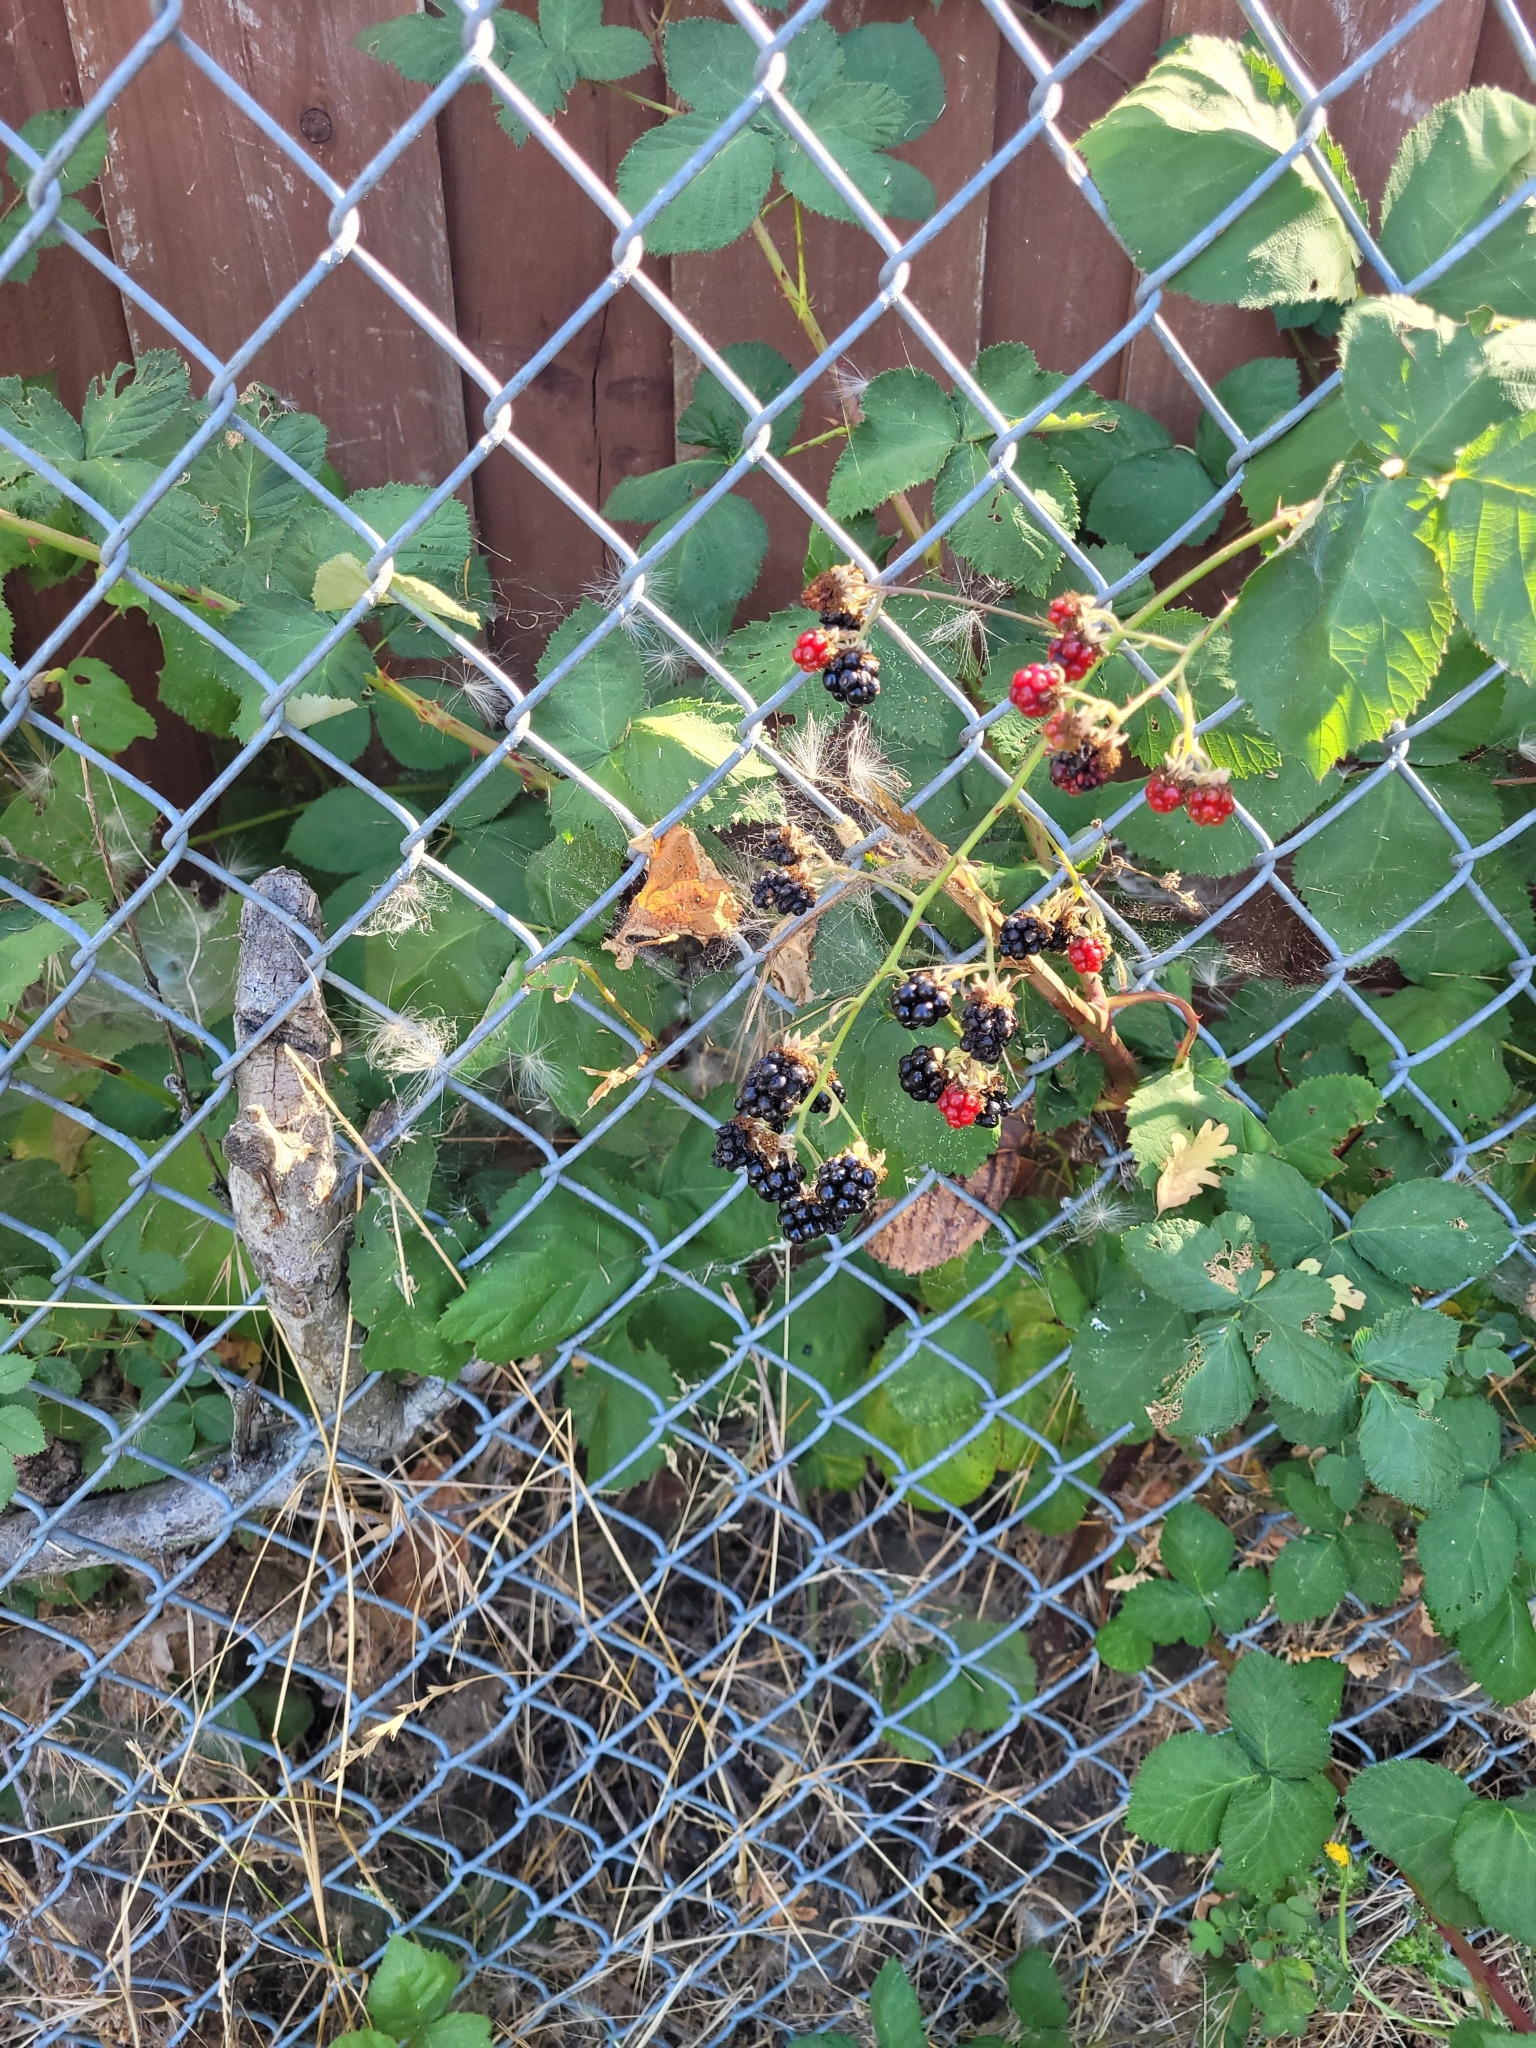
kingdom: Plantae
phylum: Tracheophyta
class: Magnoliopsida
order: Rosales
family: Rosaceae
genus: Rubus
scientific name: Rubus armeniacus
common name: Himalayan blackberry
